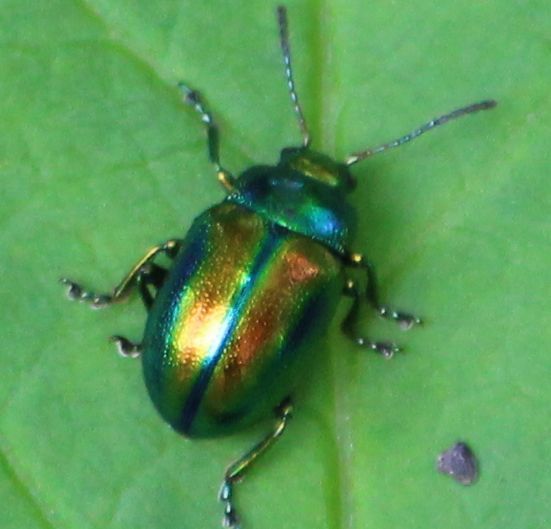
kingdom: Animalia
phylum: Arthropoda
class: Insecta
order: Coleoptera
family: Chrysomelidae
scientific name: Chrysomelidae
